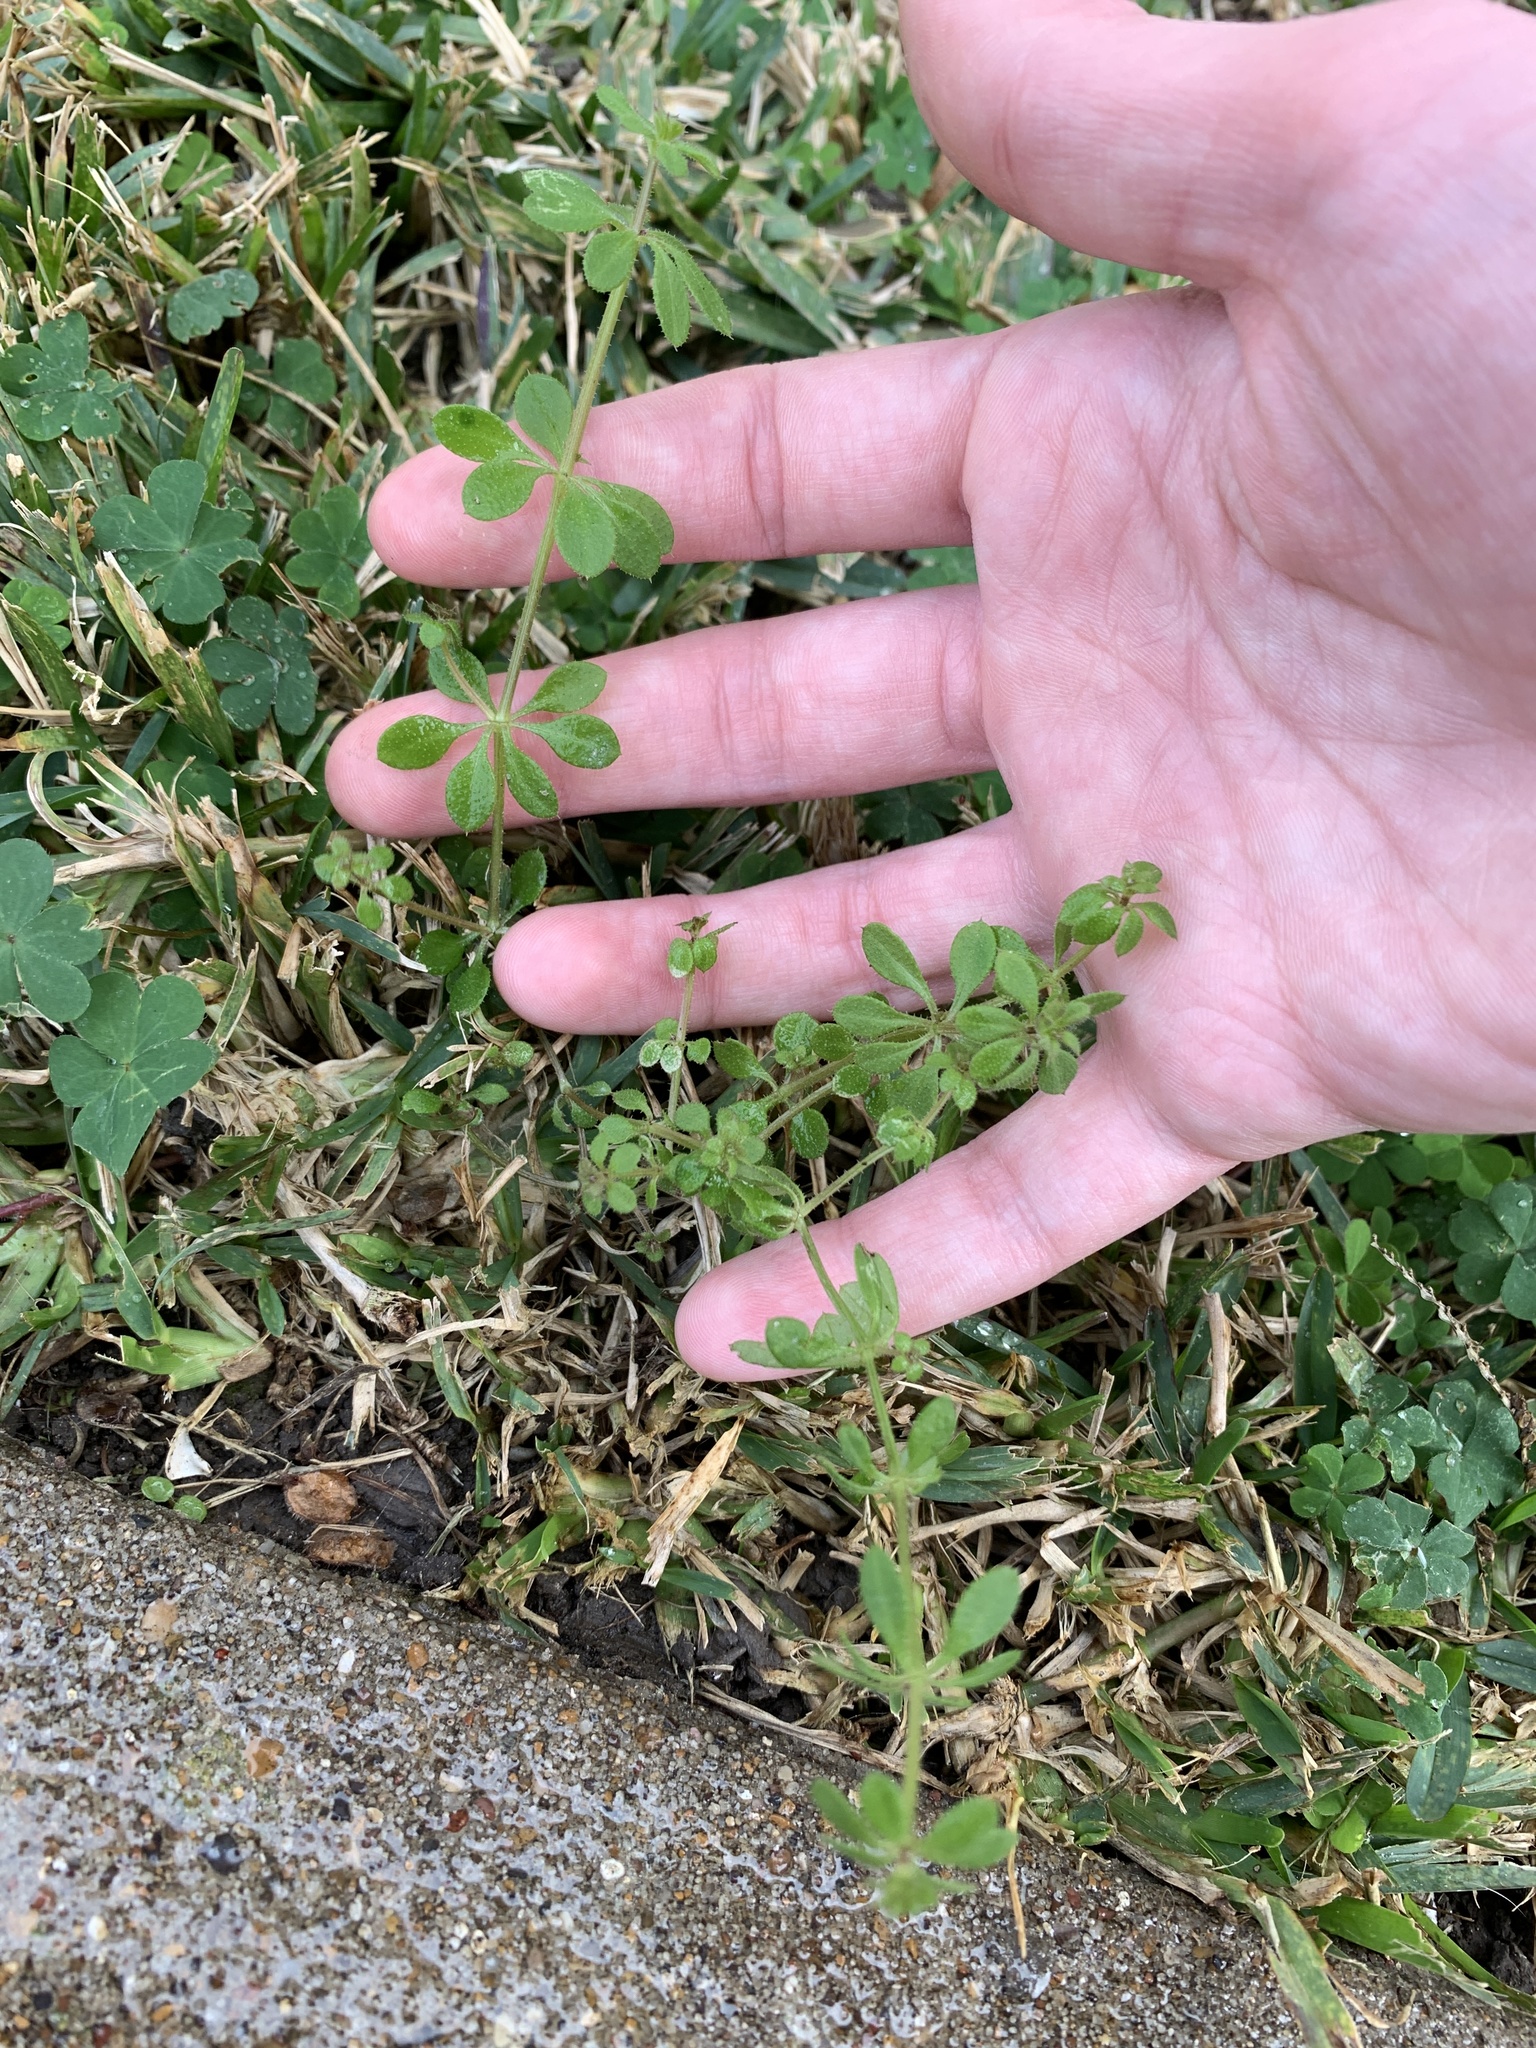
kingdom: Plantae
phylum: Tracheophyta
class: Magnoliopsida
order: Gentianales
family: Rubiaceae
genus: Galium
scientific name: Galium aparine
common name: Cleavers
